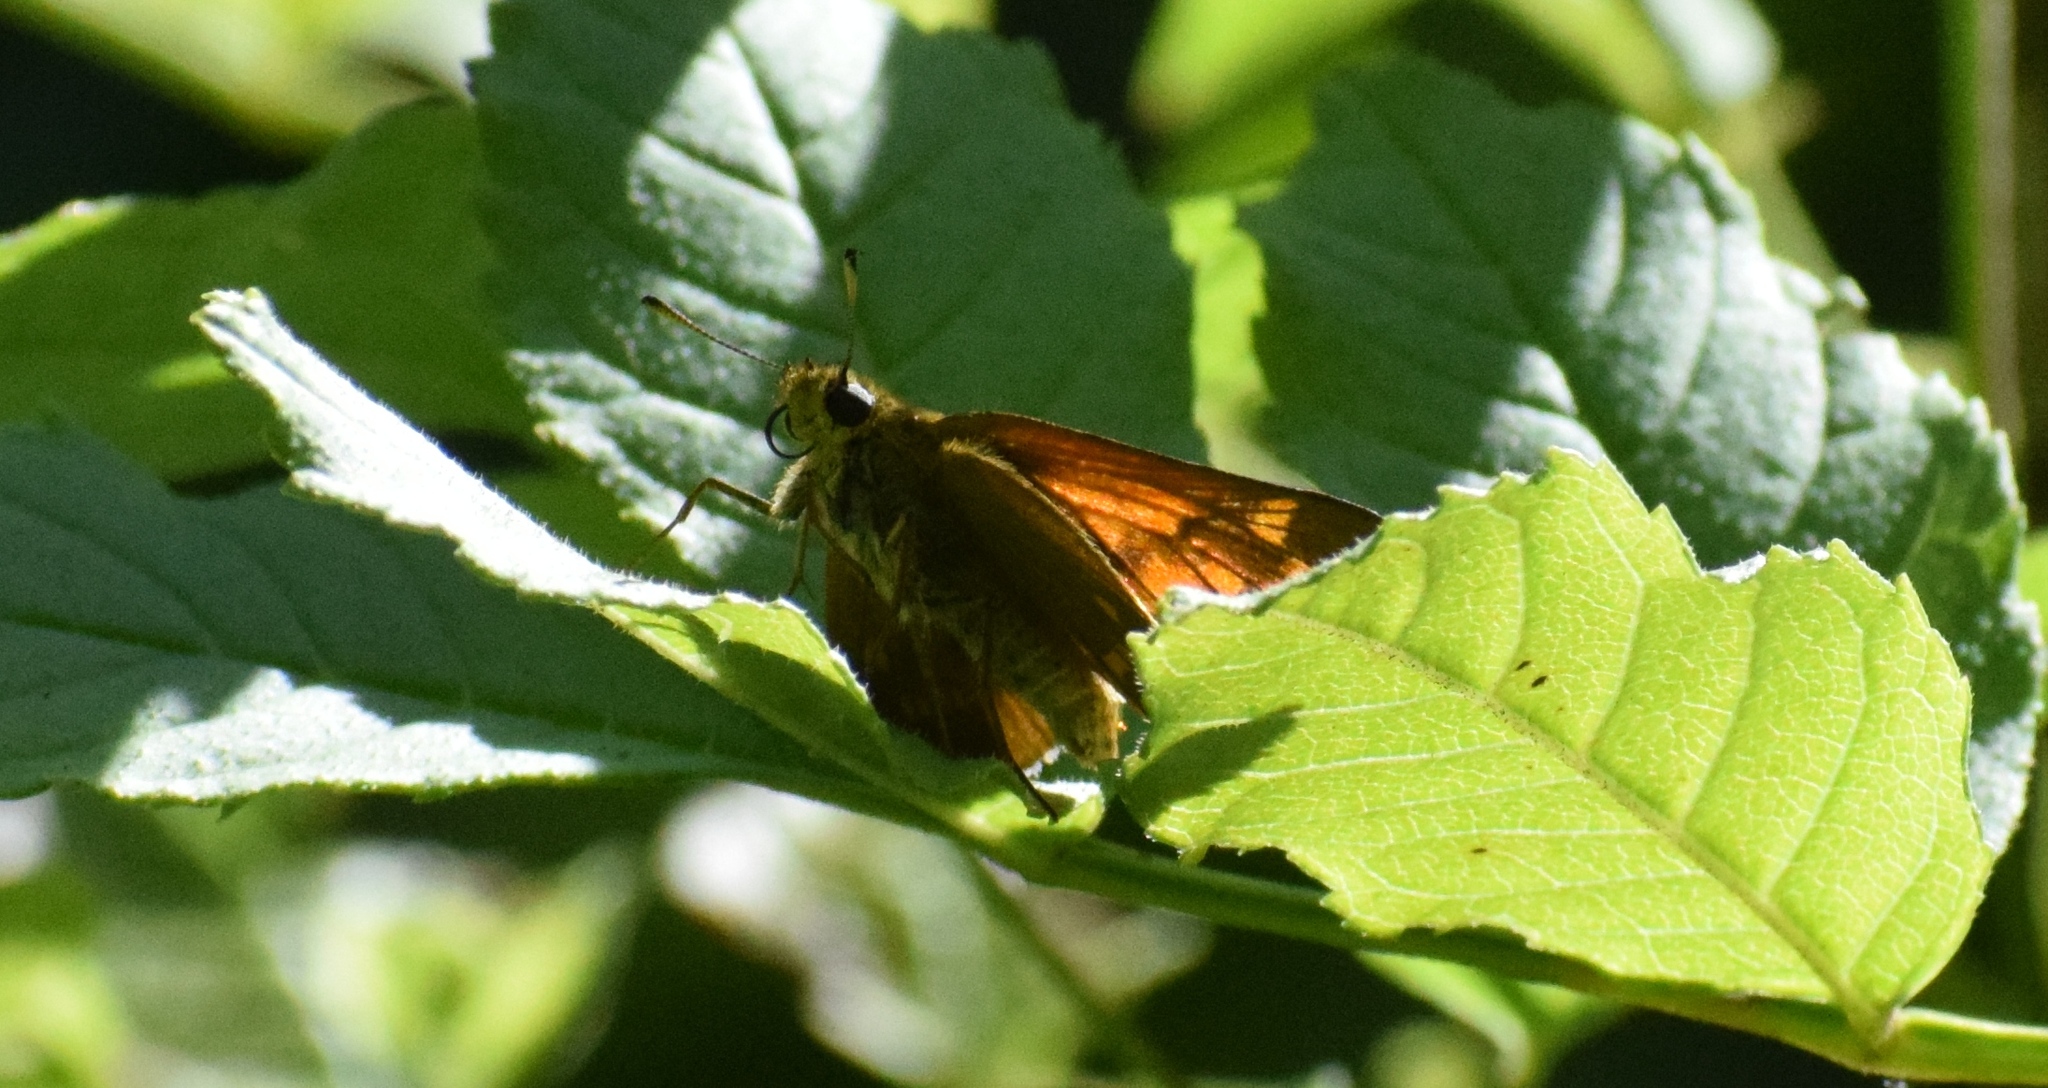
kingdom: Animalia
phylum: Arthropoda
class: Insecta
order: Lepidoptera
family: Hesperiidae
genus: Ochlodes
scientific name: Ochlodes venata
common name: Large skipper
